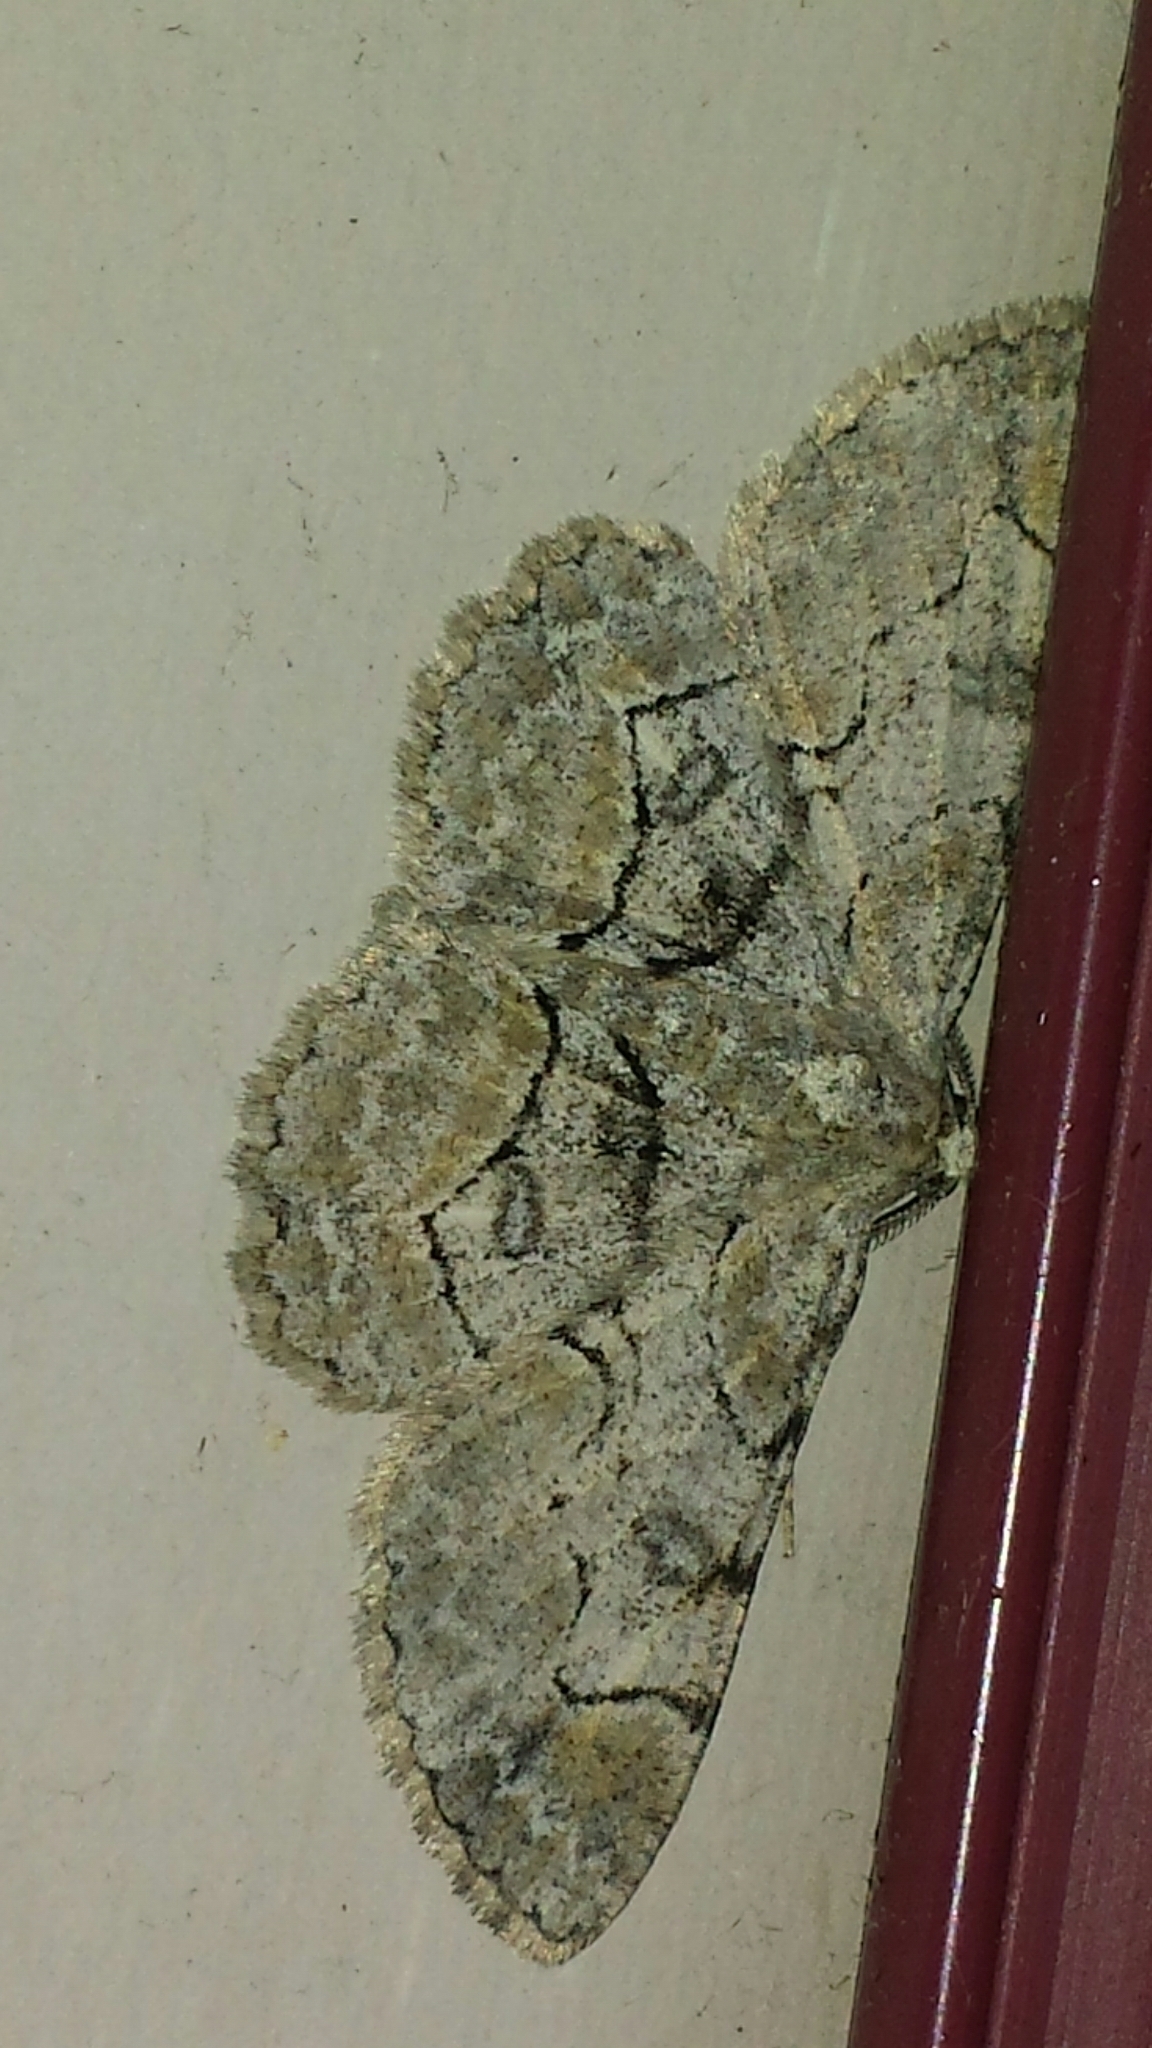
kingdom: Animalia
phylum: Arthropoda
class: Insecta
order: Lepidoptera
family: Geometridae
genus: Iridopsis
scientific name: Iridopsis larvaria
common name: Bent-line gray
